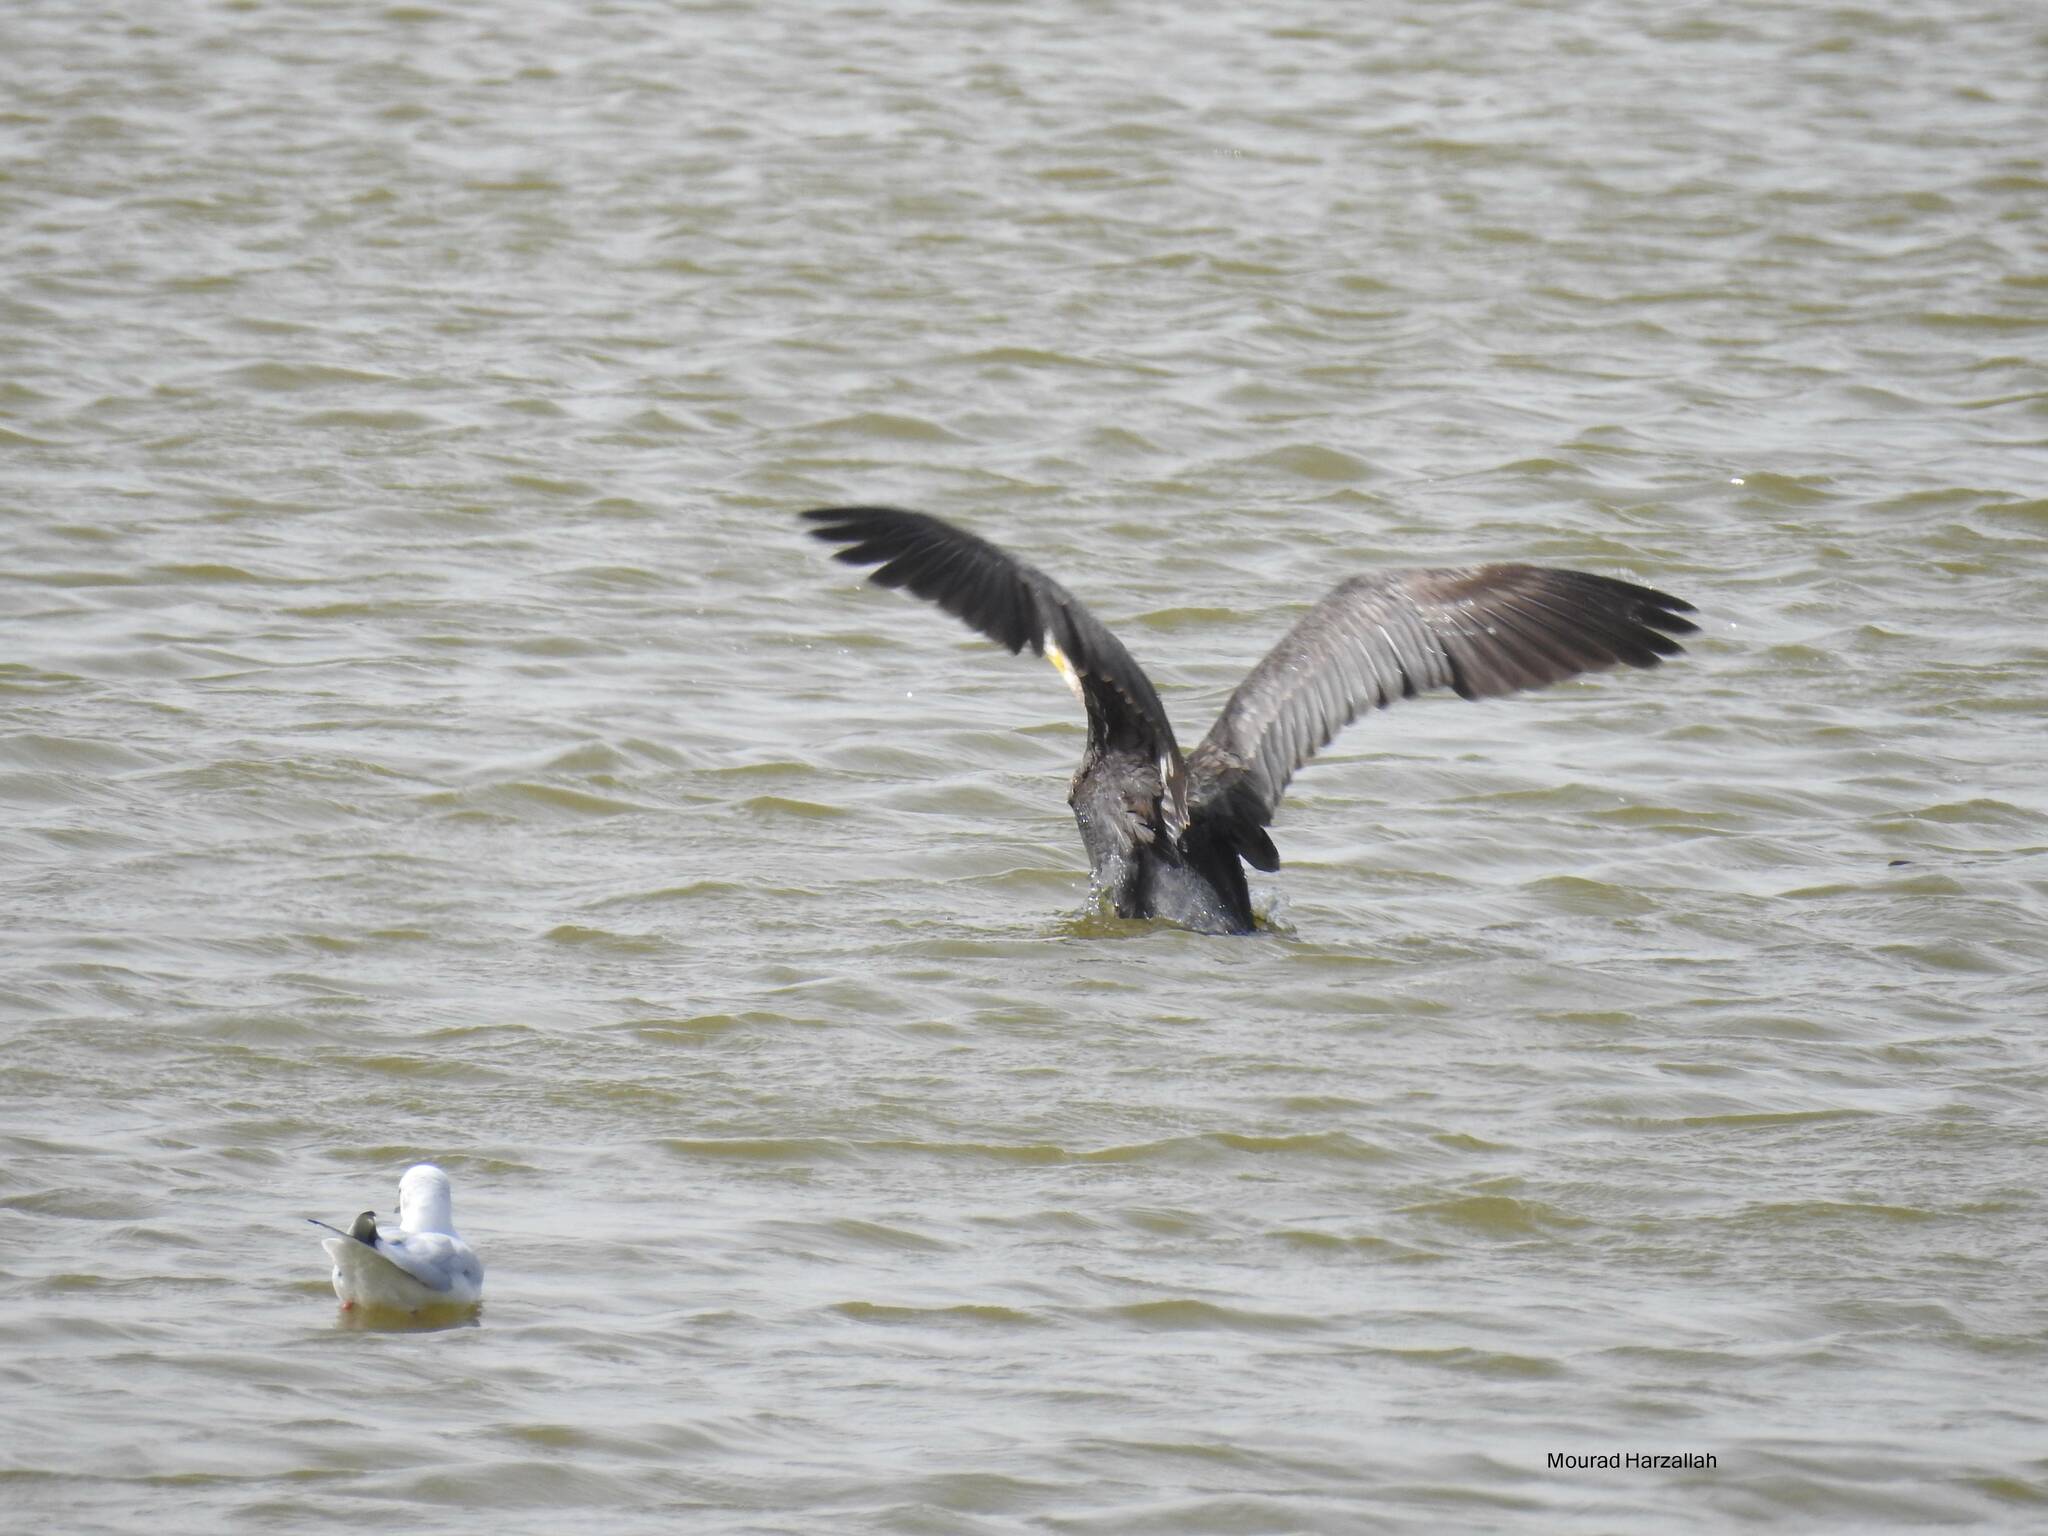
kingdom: Animalia
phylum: Chordata
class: Aves
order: Suliformes
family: Phalacrocoracidae
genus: Phalacrocorax
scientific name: Phalacrocorax carbo
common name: Great cormorant
